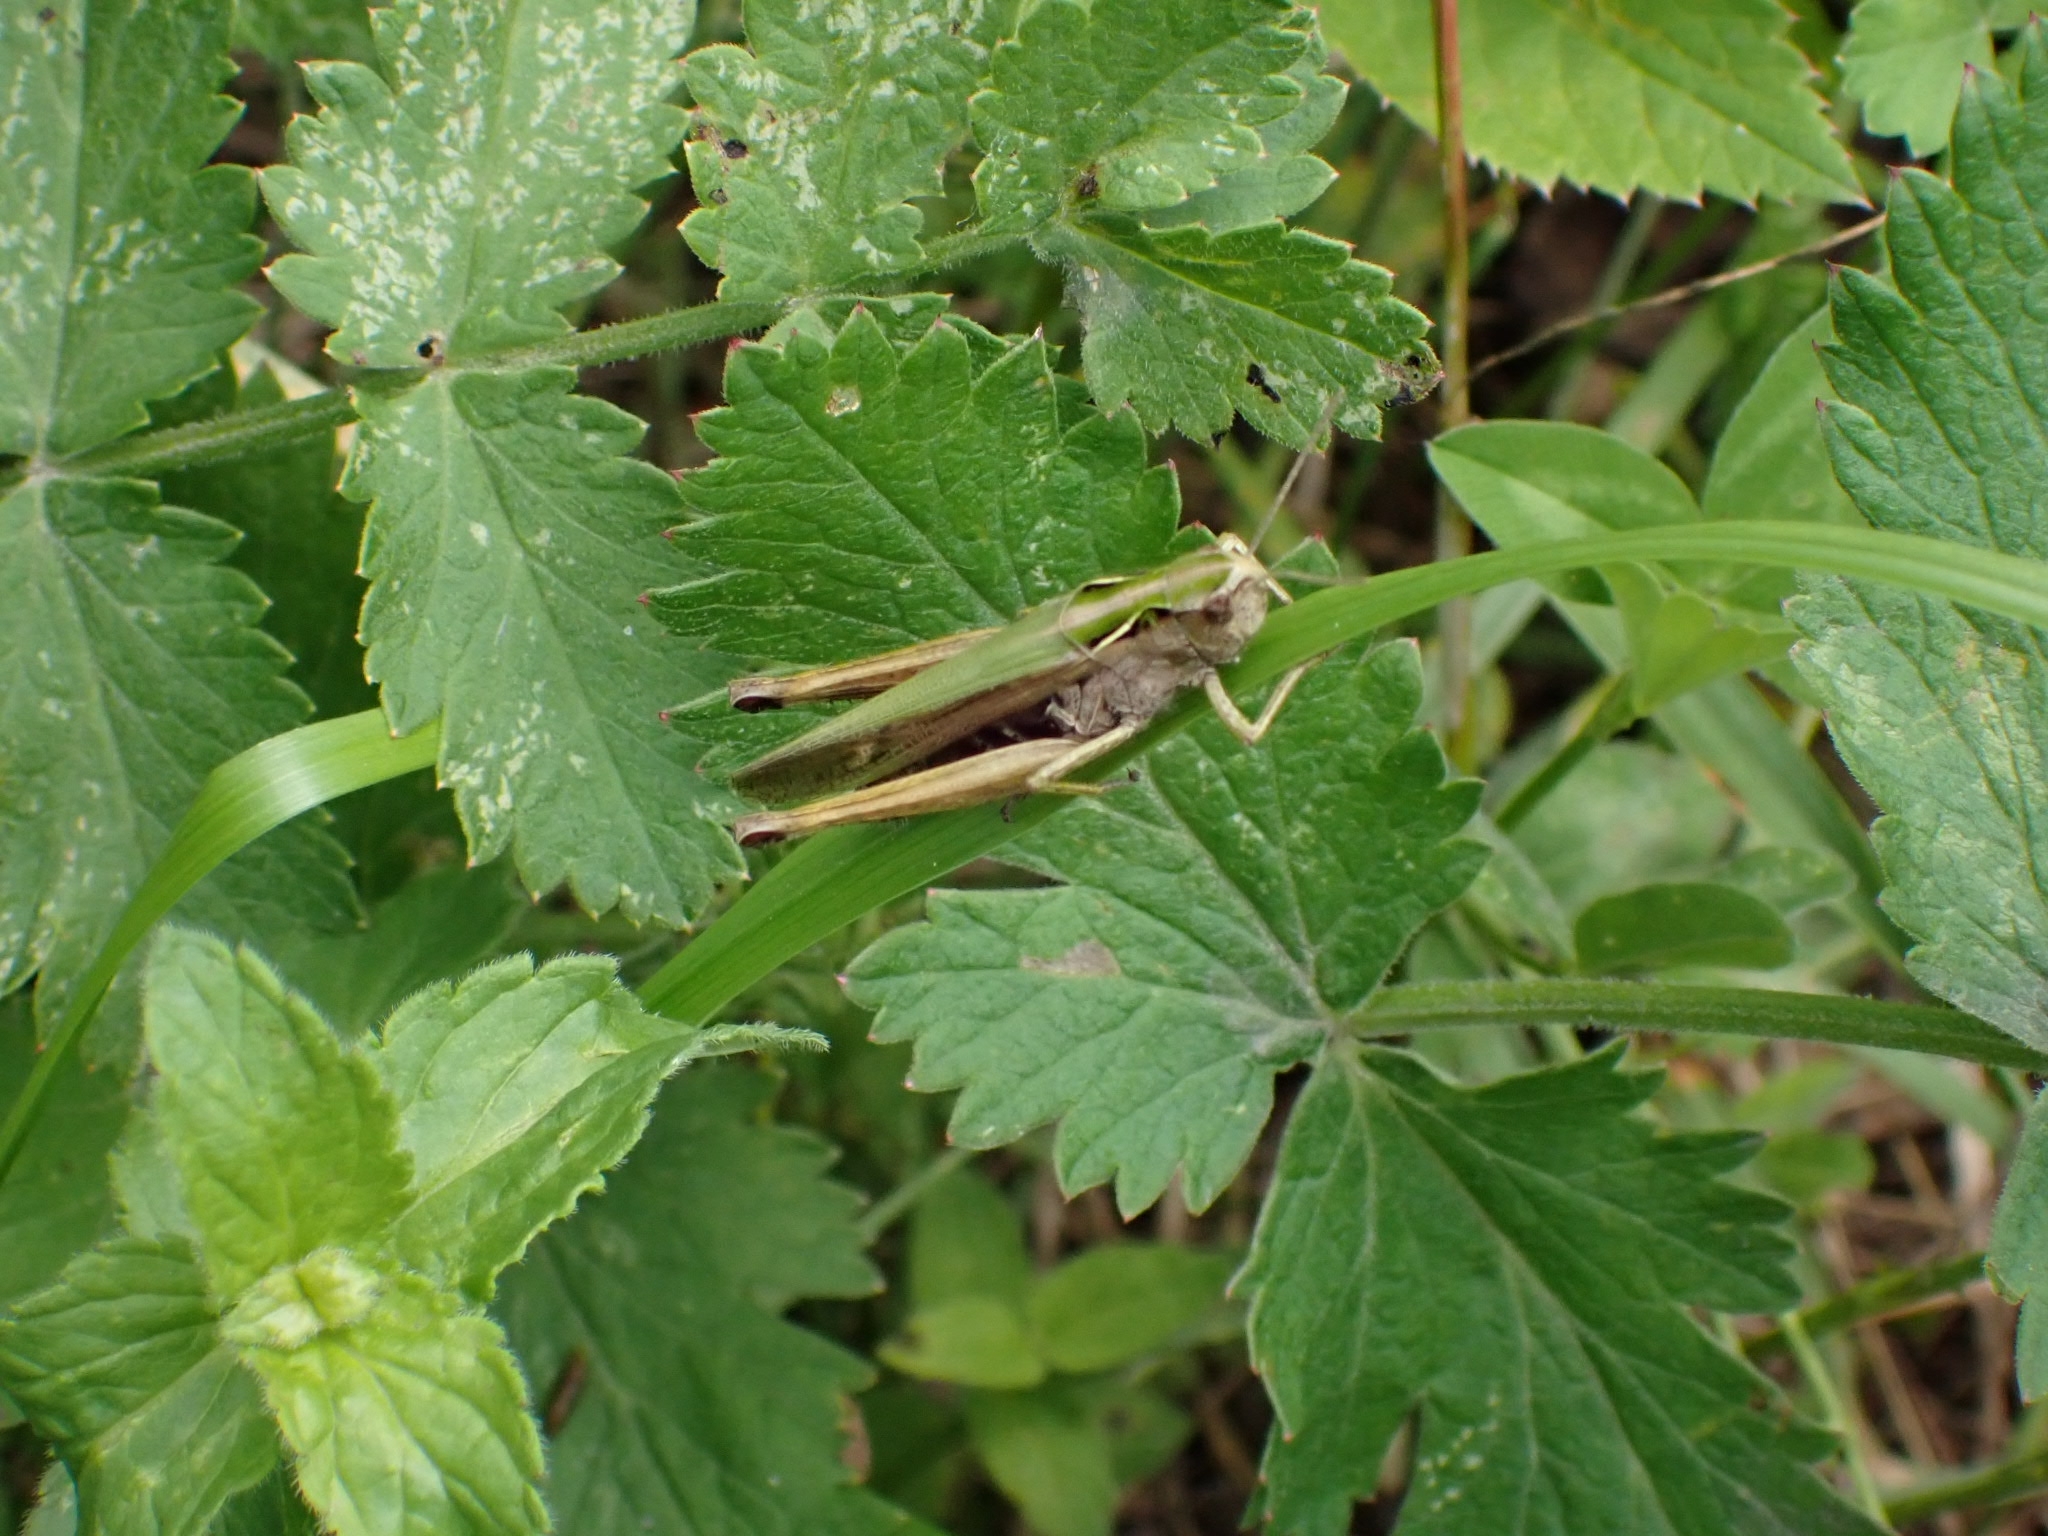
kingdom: Animalia
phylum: Arthropoda
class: Insecta
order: Orthoptera
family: Acrididae
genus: Omocestus
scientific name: Omocestus viridulus
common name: Common green grasshopper
